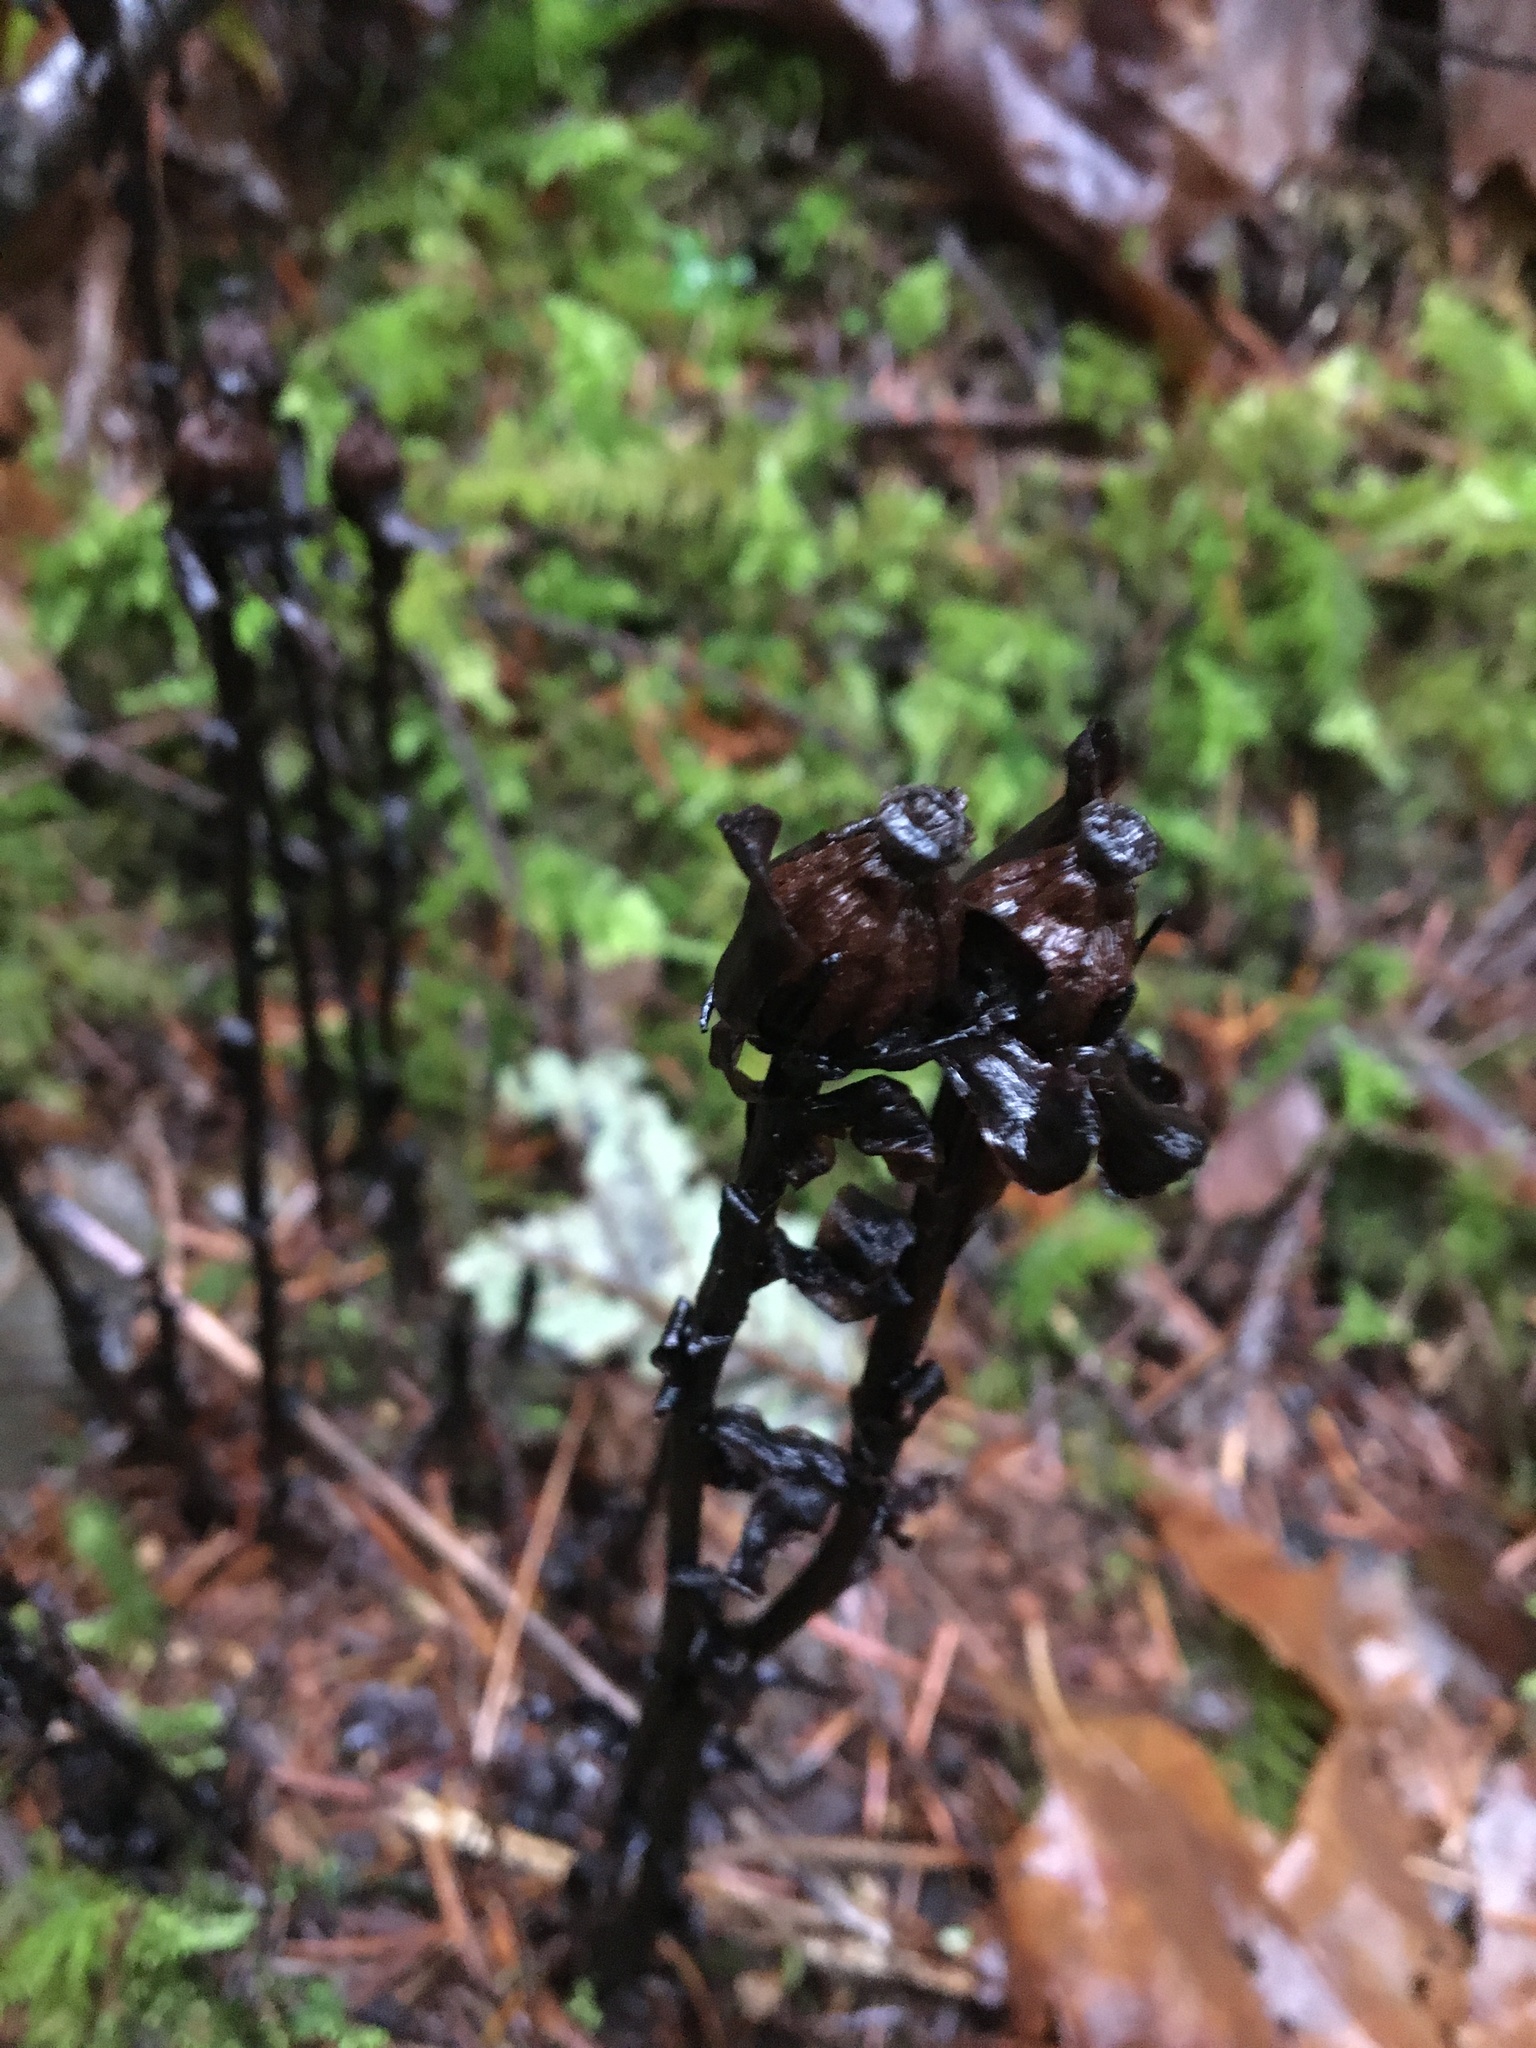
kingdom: Plantae
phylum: Tracheophyta
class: Magnoliopsida
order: Ericales
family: Ericaceae
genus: Monotropa
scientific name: Monotropa uniflora
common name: Convulsion root
